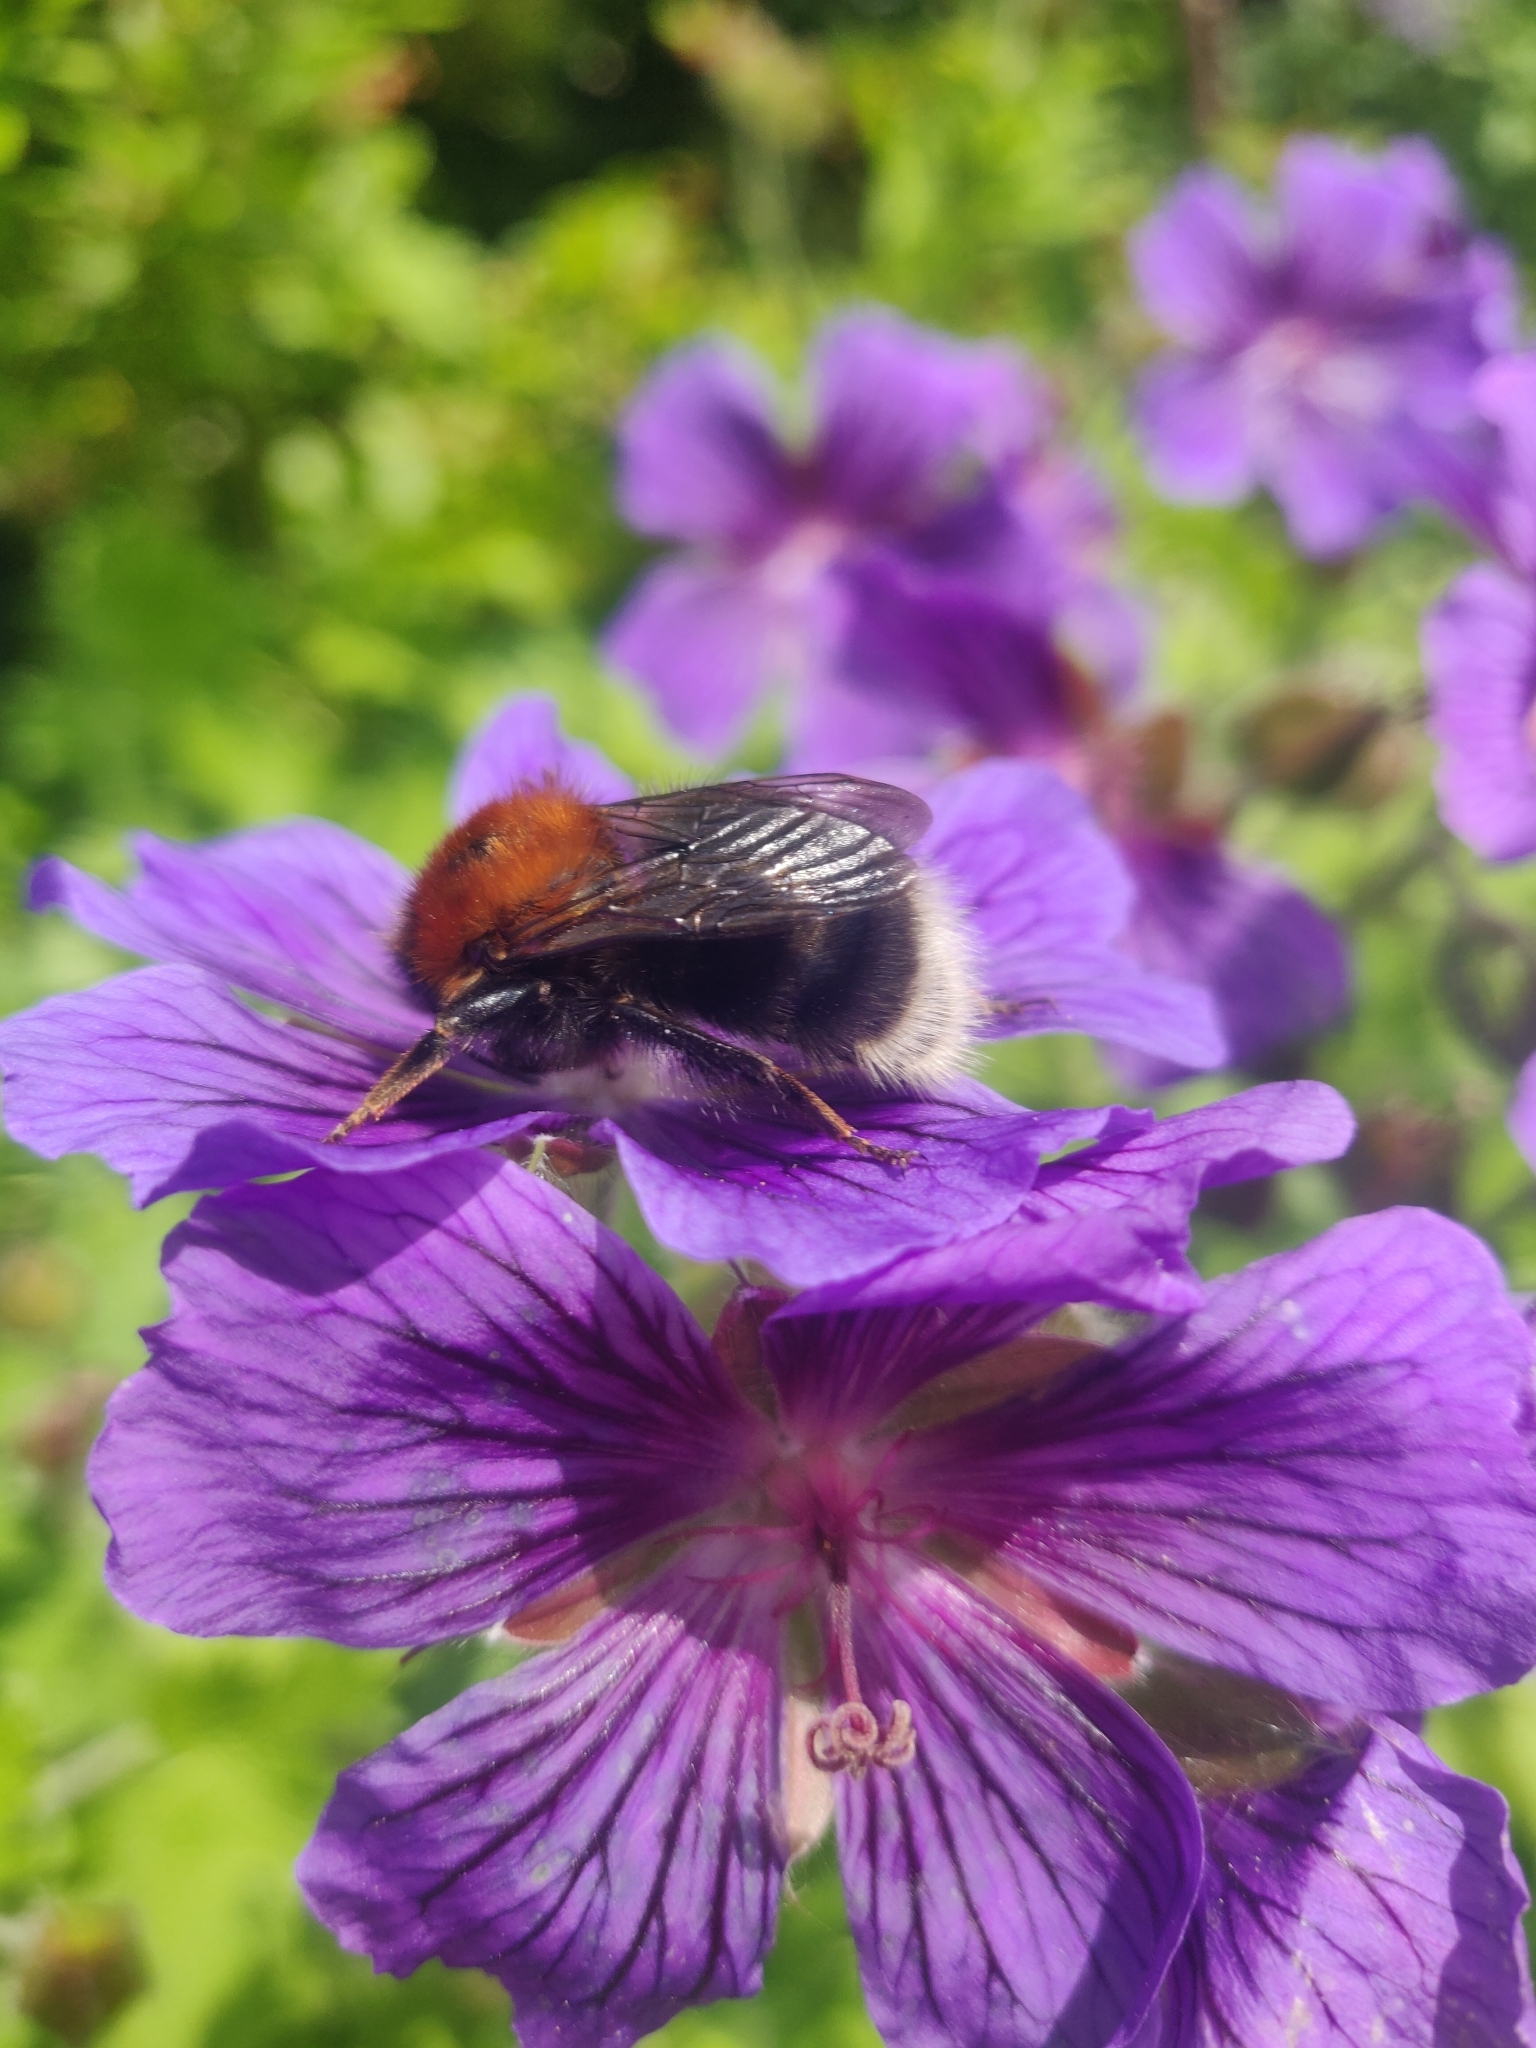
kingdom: Animalia
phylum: Arthropoda
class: Insecta
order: Hymenoptera
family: Apidae
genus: Bombus
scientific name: Bombus hypnorum
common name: New garden bumblebee
